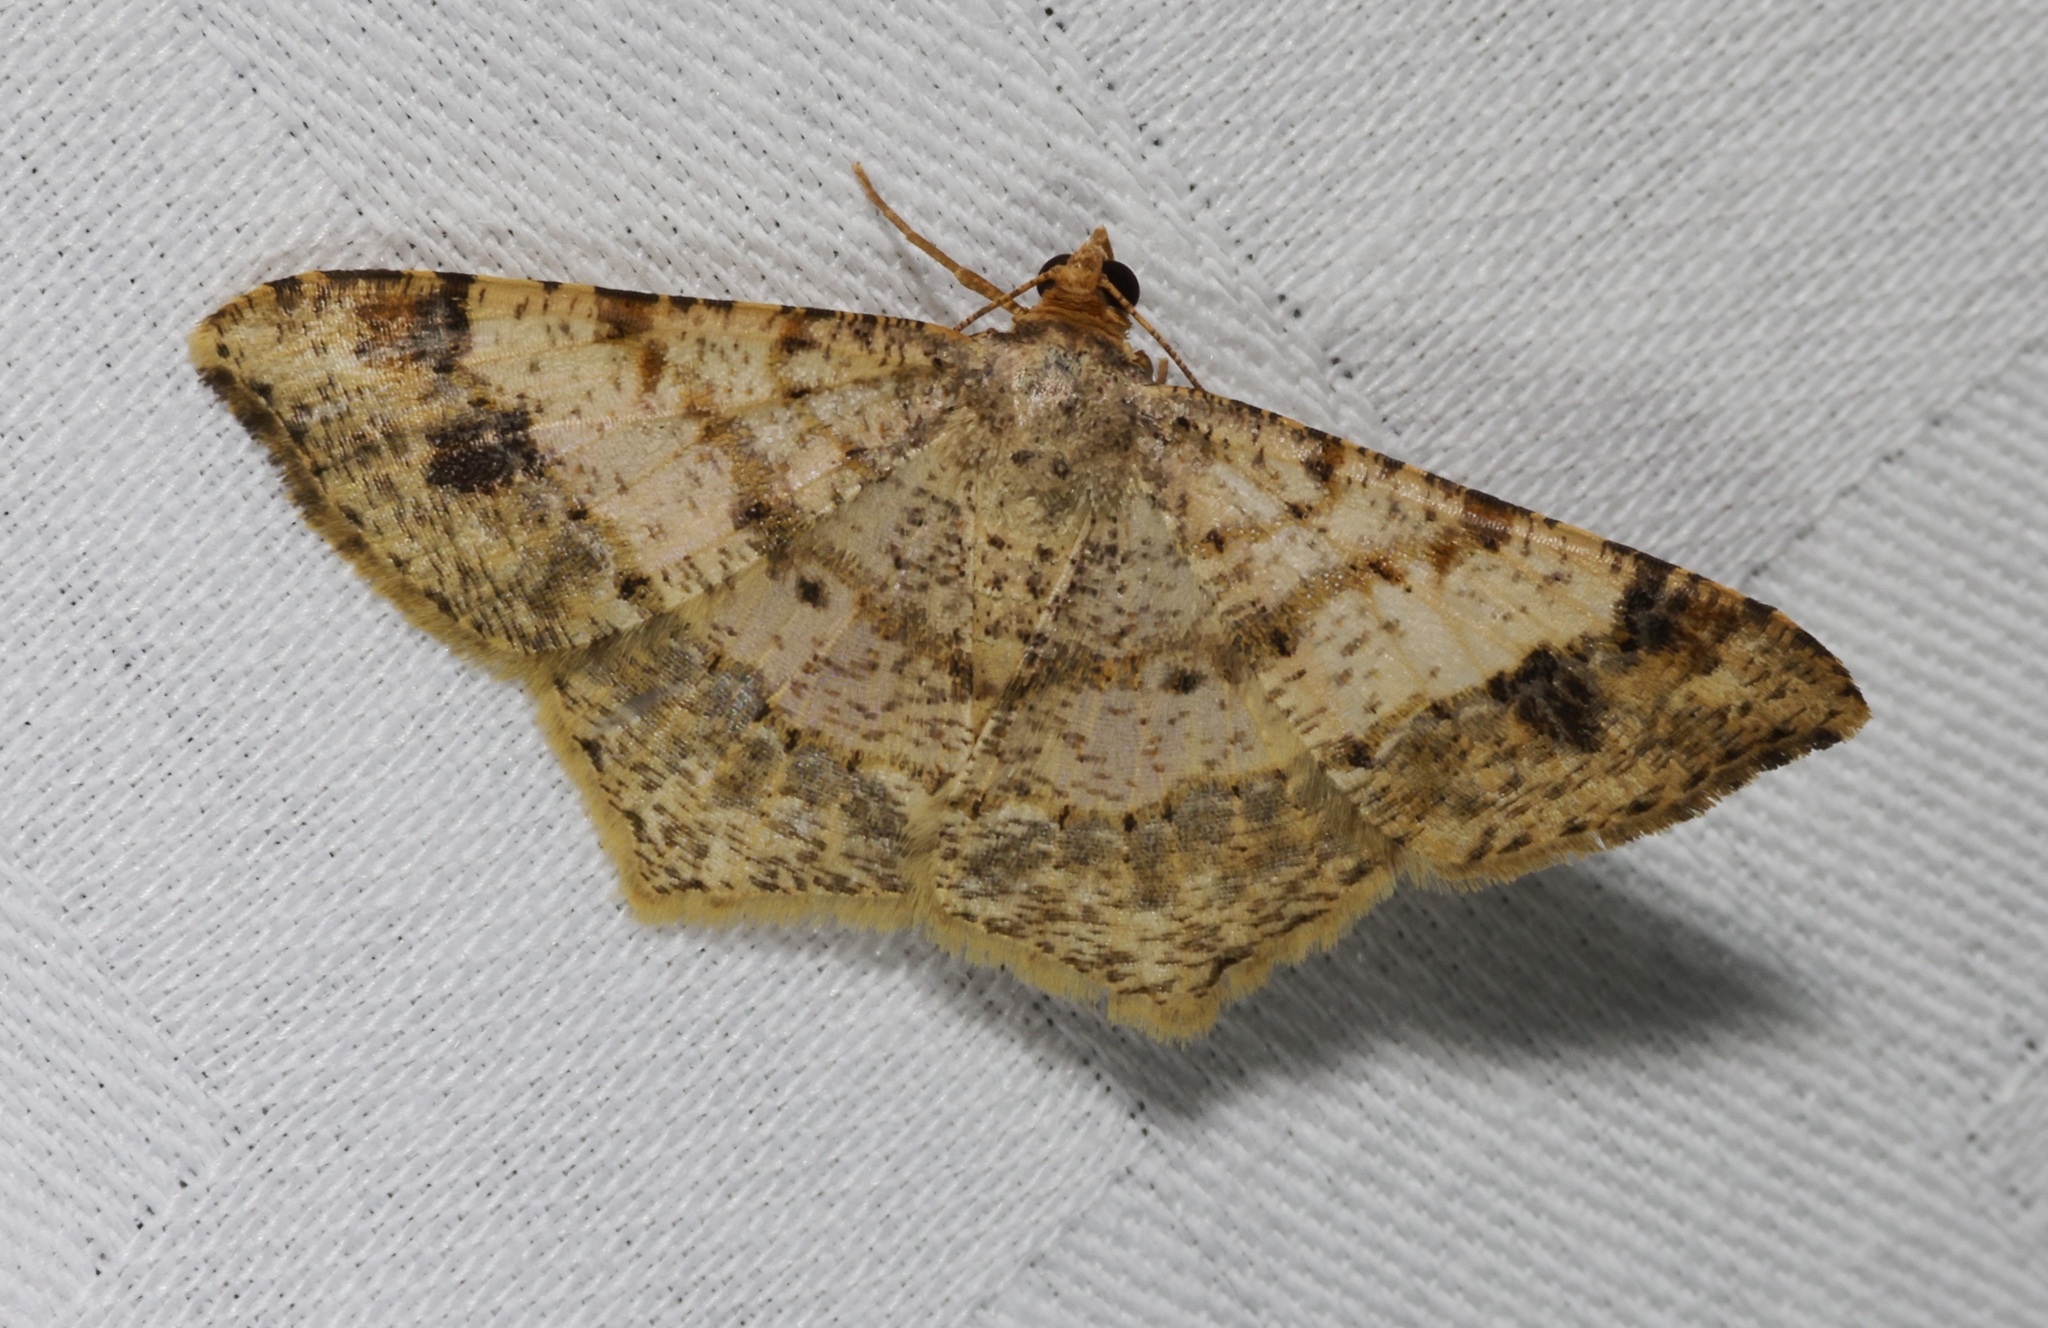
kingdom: Animalia
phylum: Arthropoda
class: Insecta
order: Lepidoptera
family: Geometridae
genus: Macaria
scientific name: Macaria abydata
